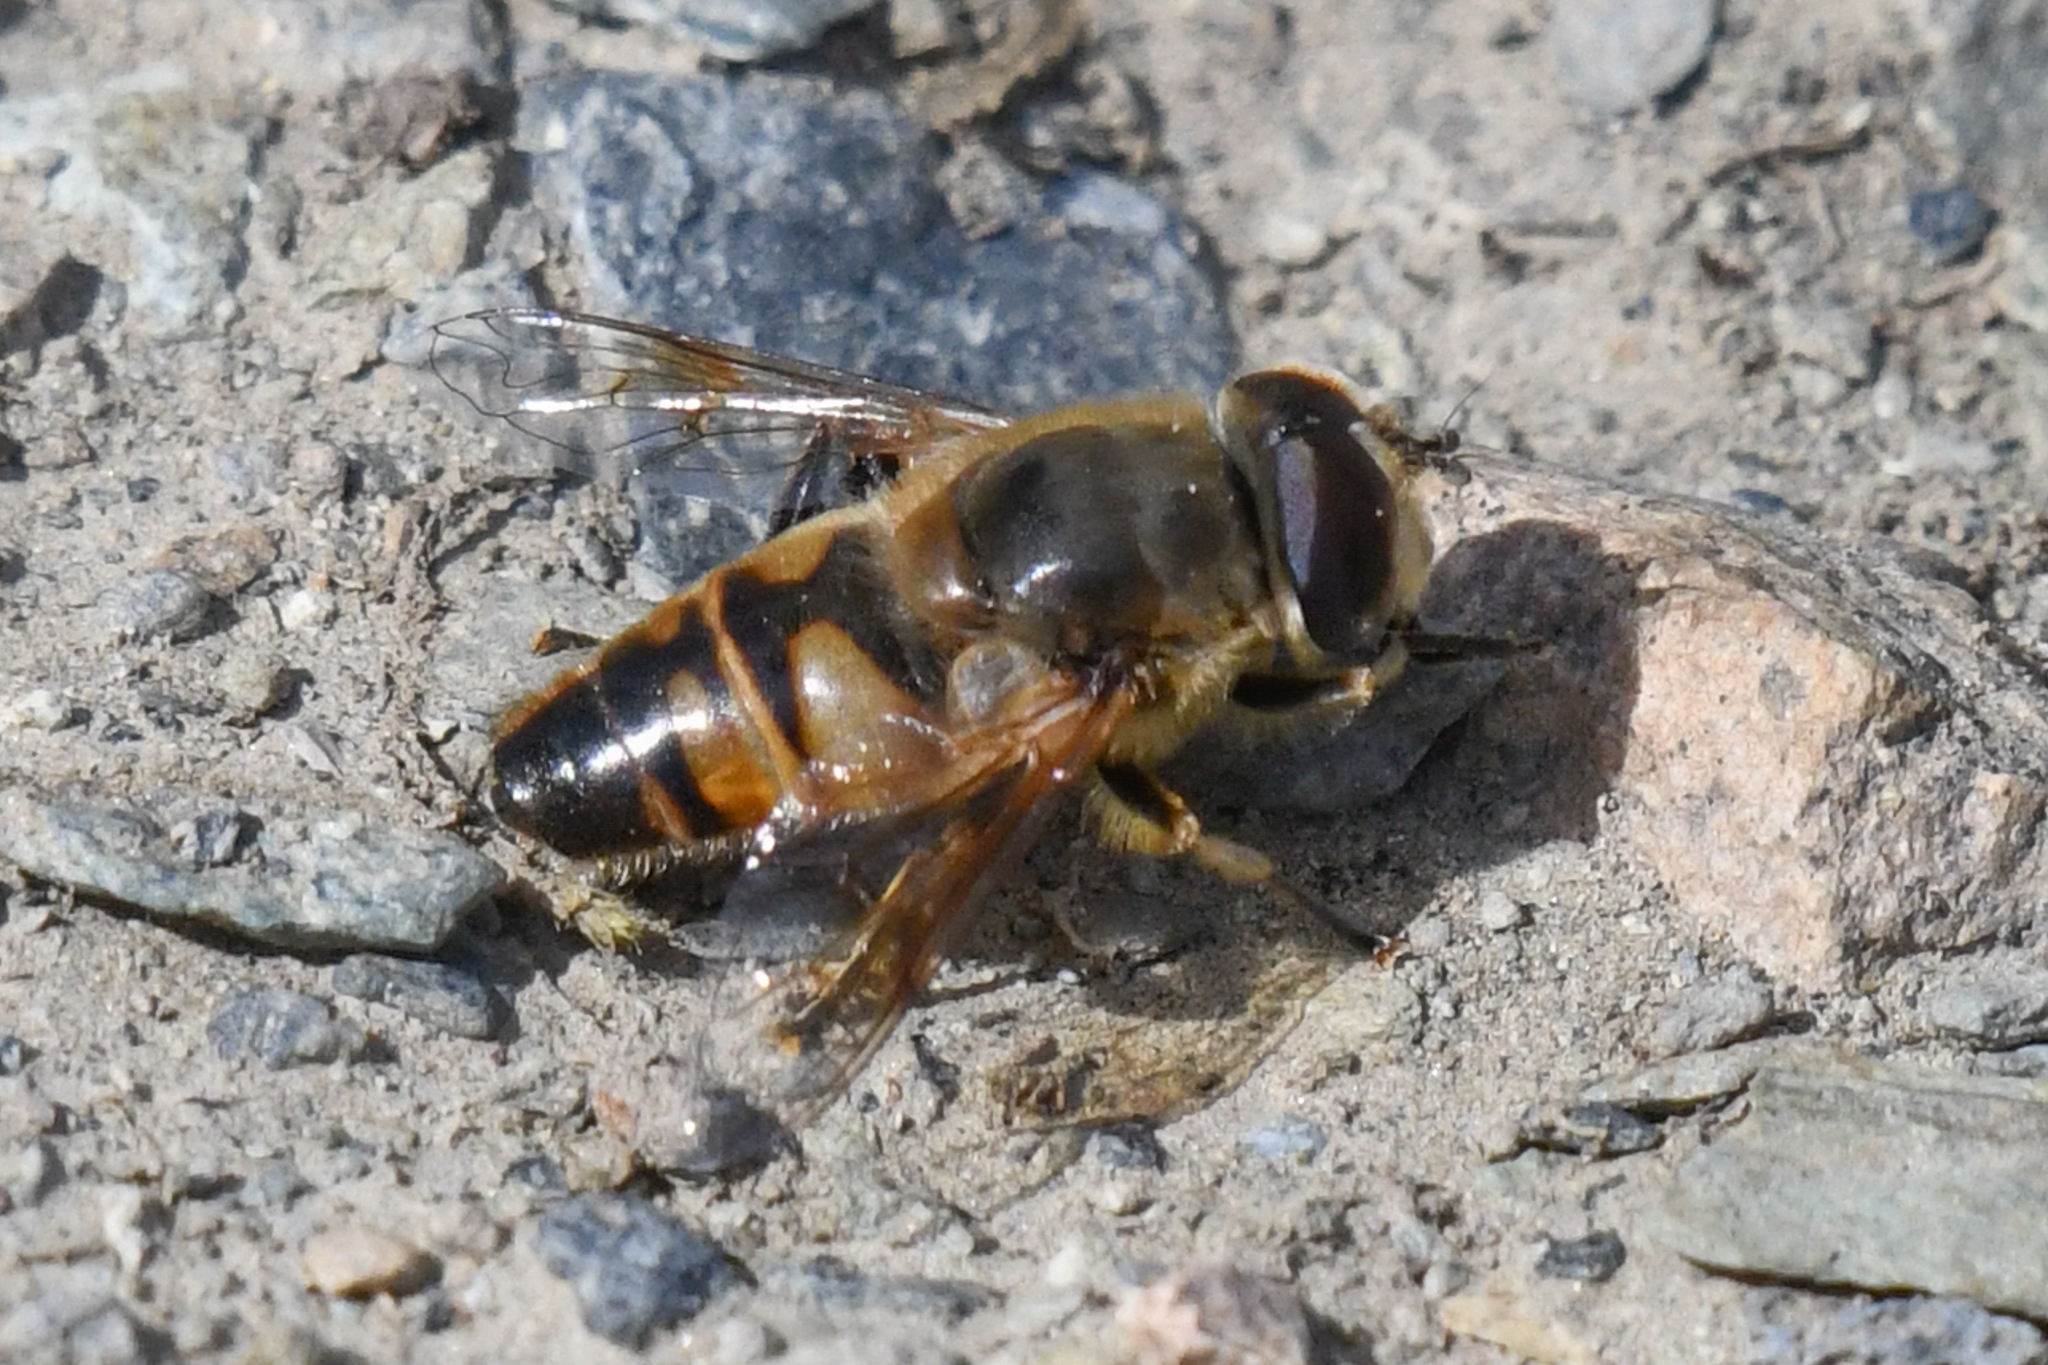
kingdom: Animalia
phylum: Arthropoda
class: Insecta
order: Diptera
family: Syrphidae
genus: Eristalis
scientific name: Eristalis tenax
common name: Drone fly
